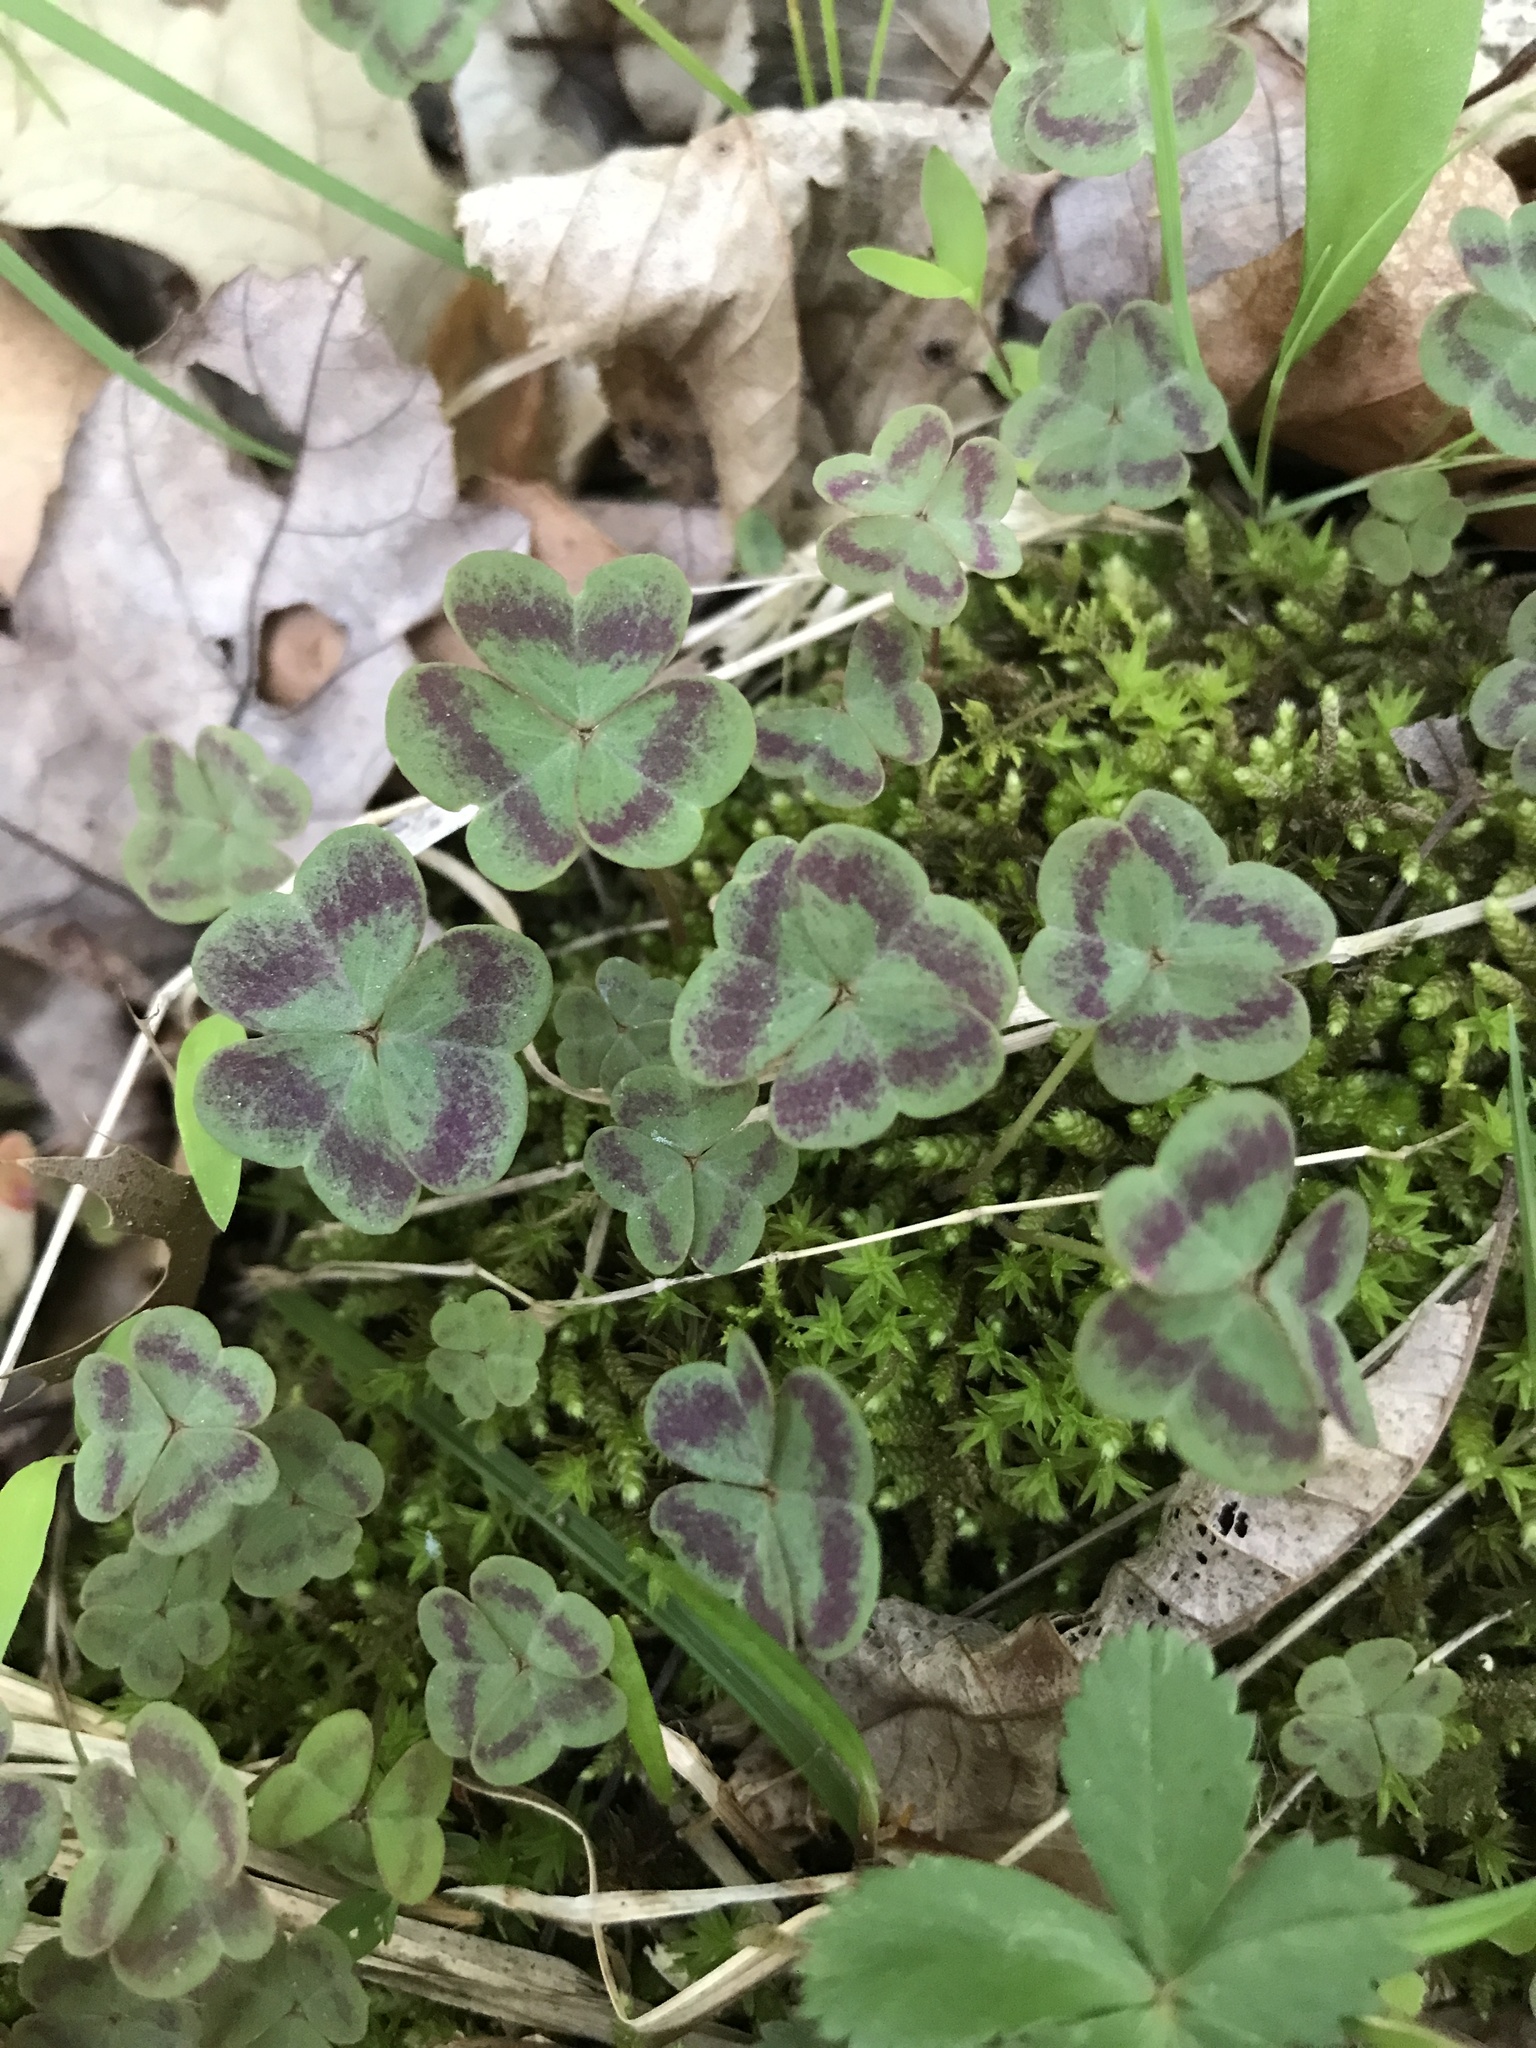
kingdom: Plantae
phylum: Tracheophyta
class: Magnoliopsida
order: Oxalidales
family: Oxalidaceae
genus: Oxalis
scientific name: Oxalis violacea
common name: Violet wood-sorrel
